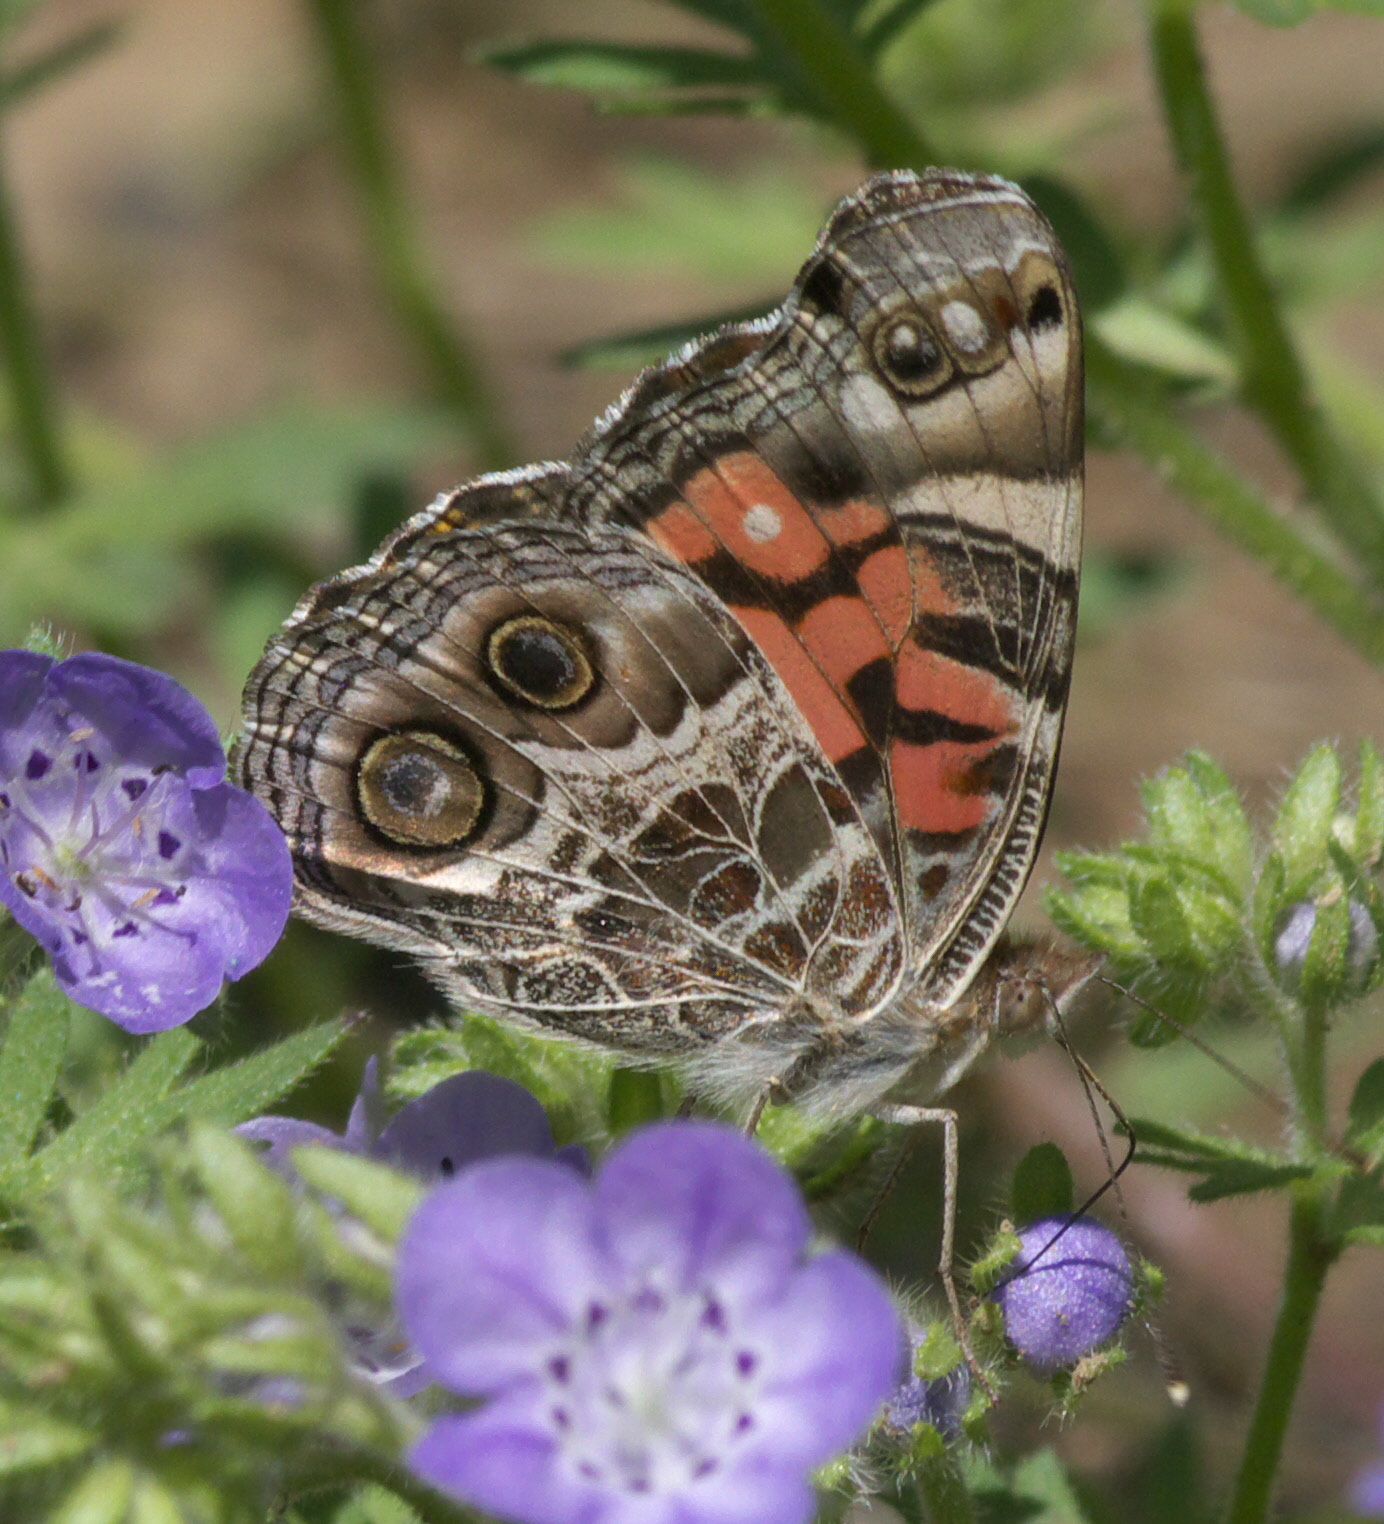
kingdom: Animalia
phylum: Arthropoda
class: Insecta
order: Lepidoptera
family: Nymphalidae
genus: Vanessa
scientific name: Vanessa virginiensis
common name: American lady
